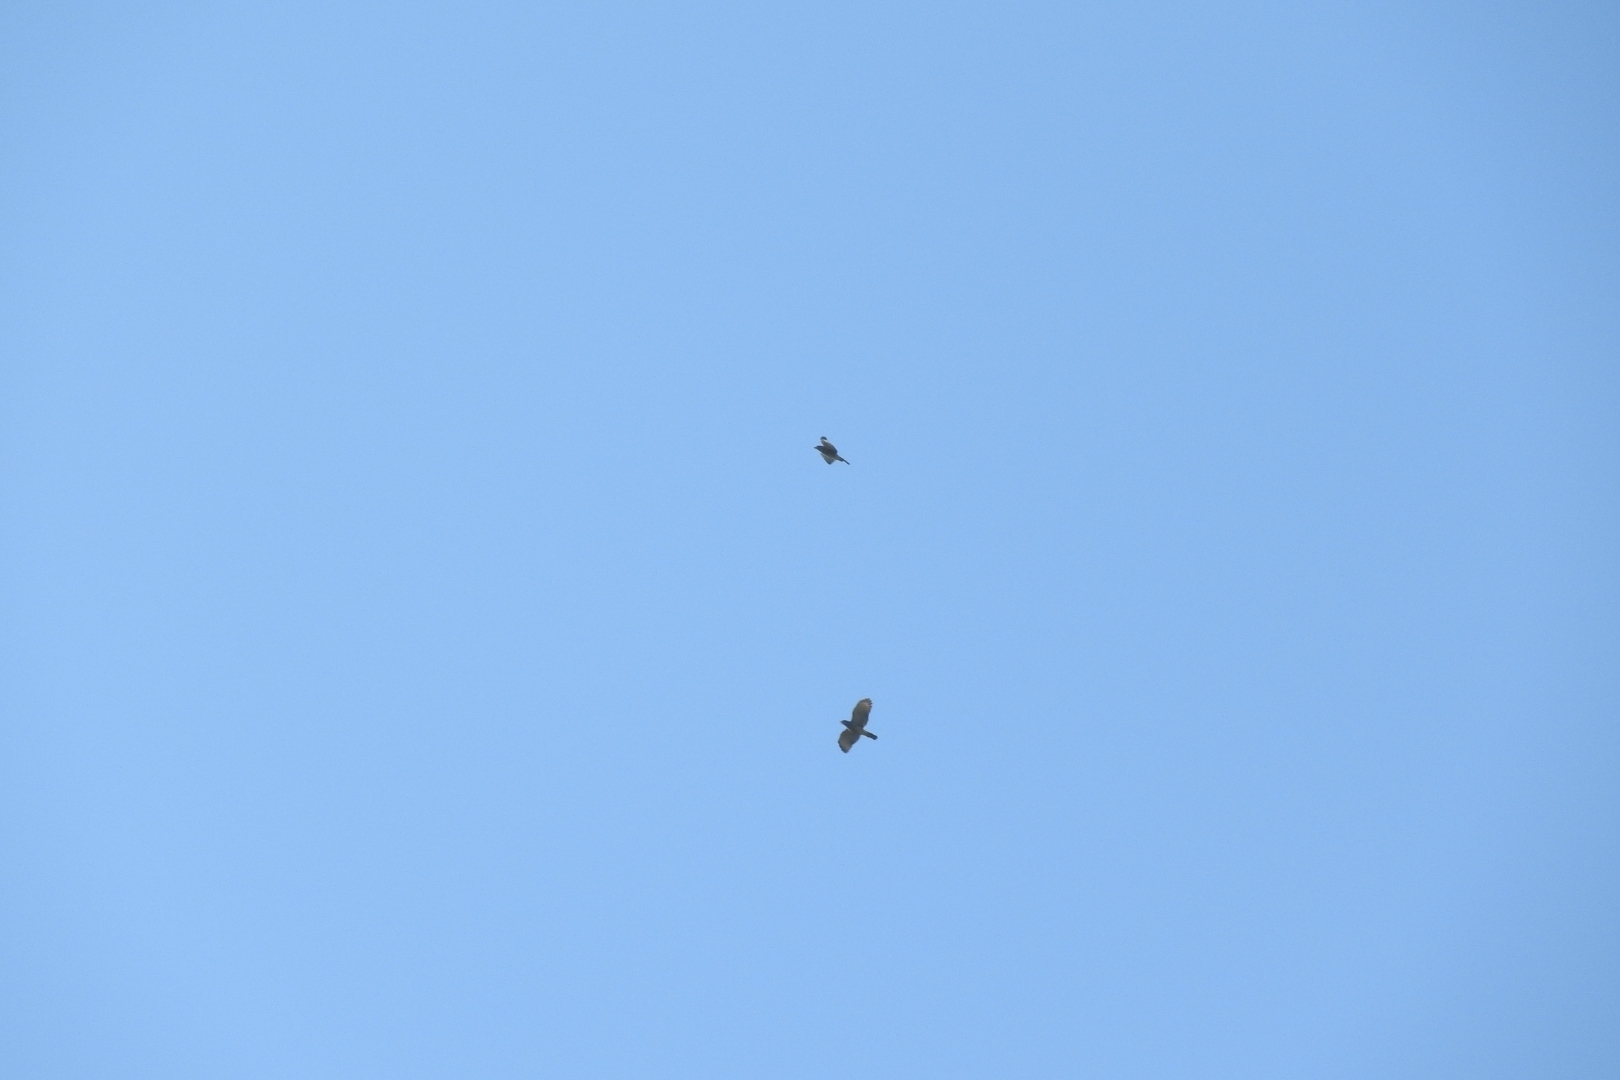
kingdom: Animalia
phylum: Chordata
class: Aves
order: Accipitriformes
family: Accipitridae
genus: Rupornis
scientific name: Rupornis magnirostris
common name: Roadside hawk
